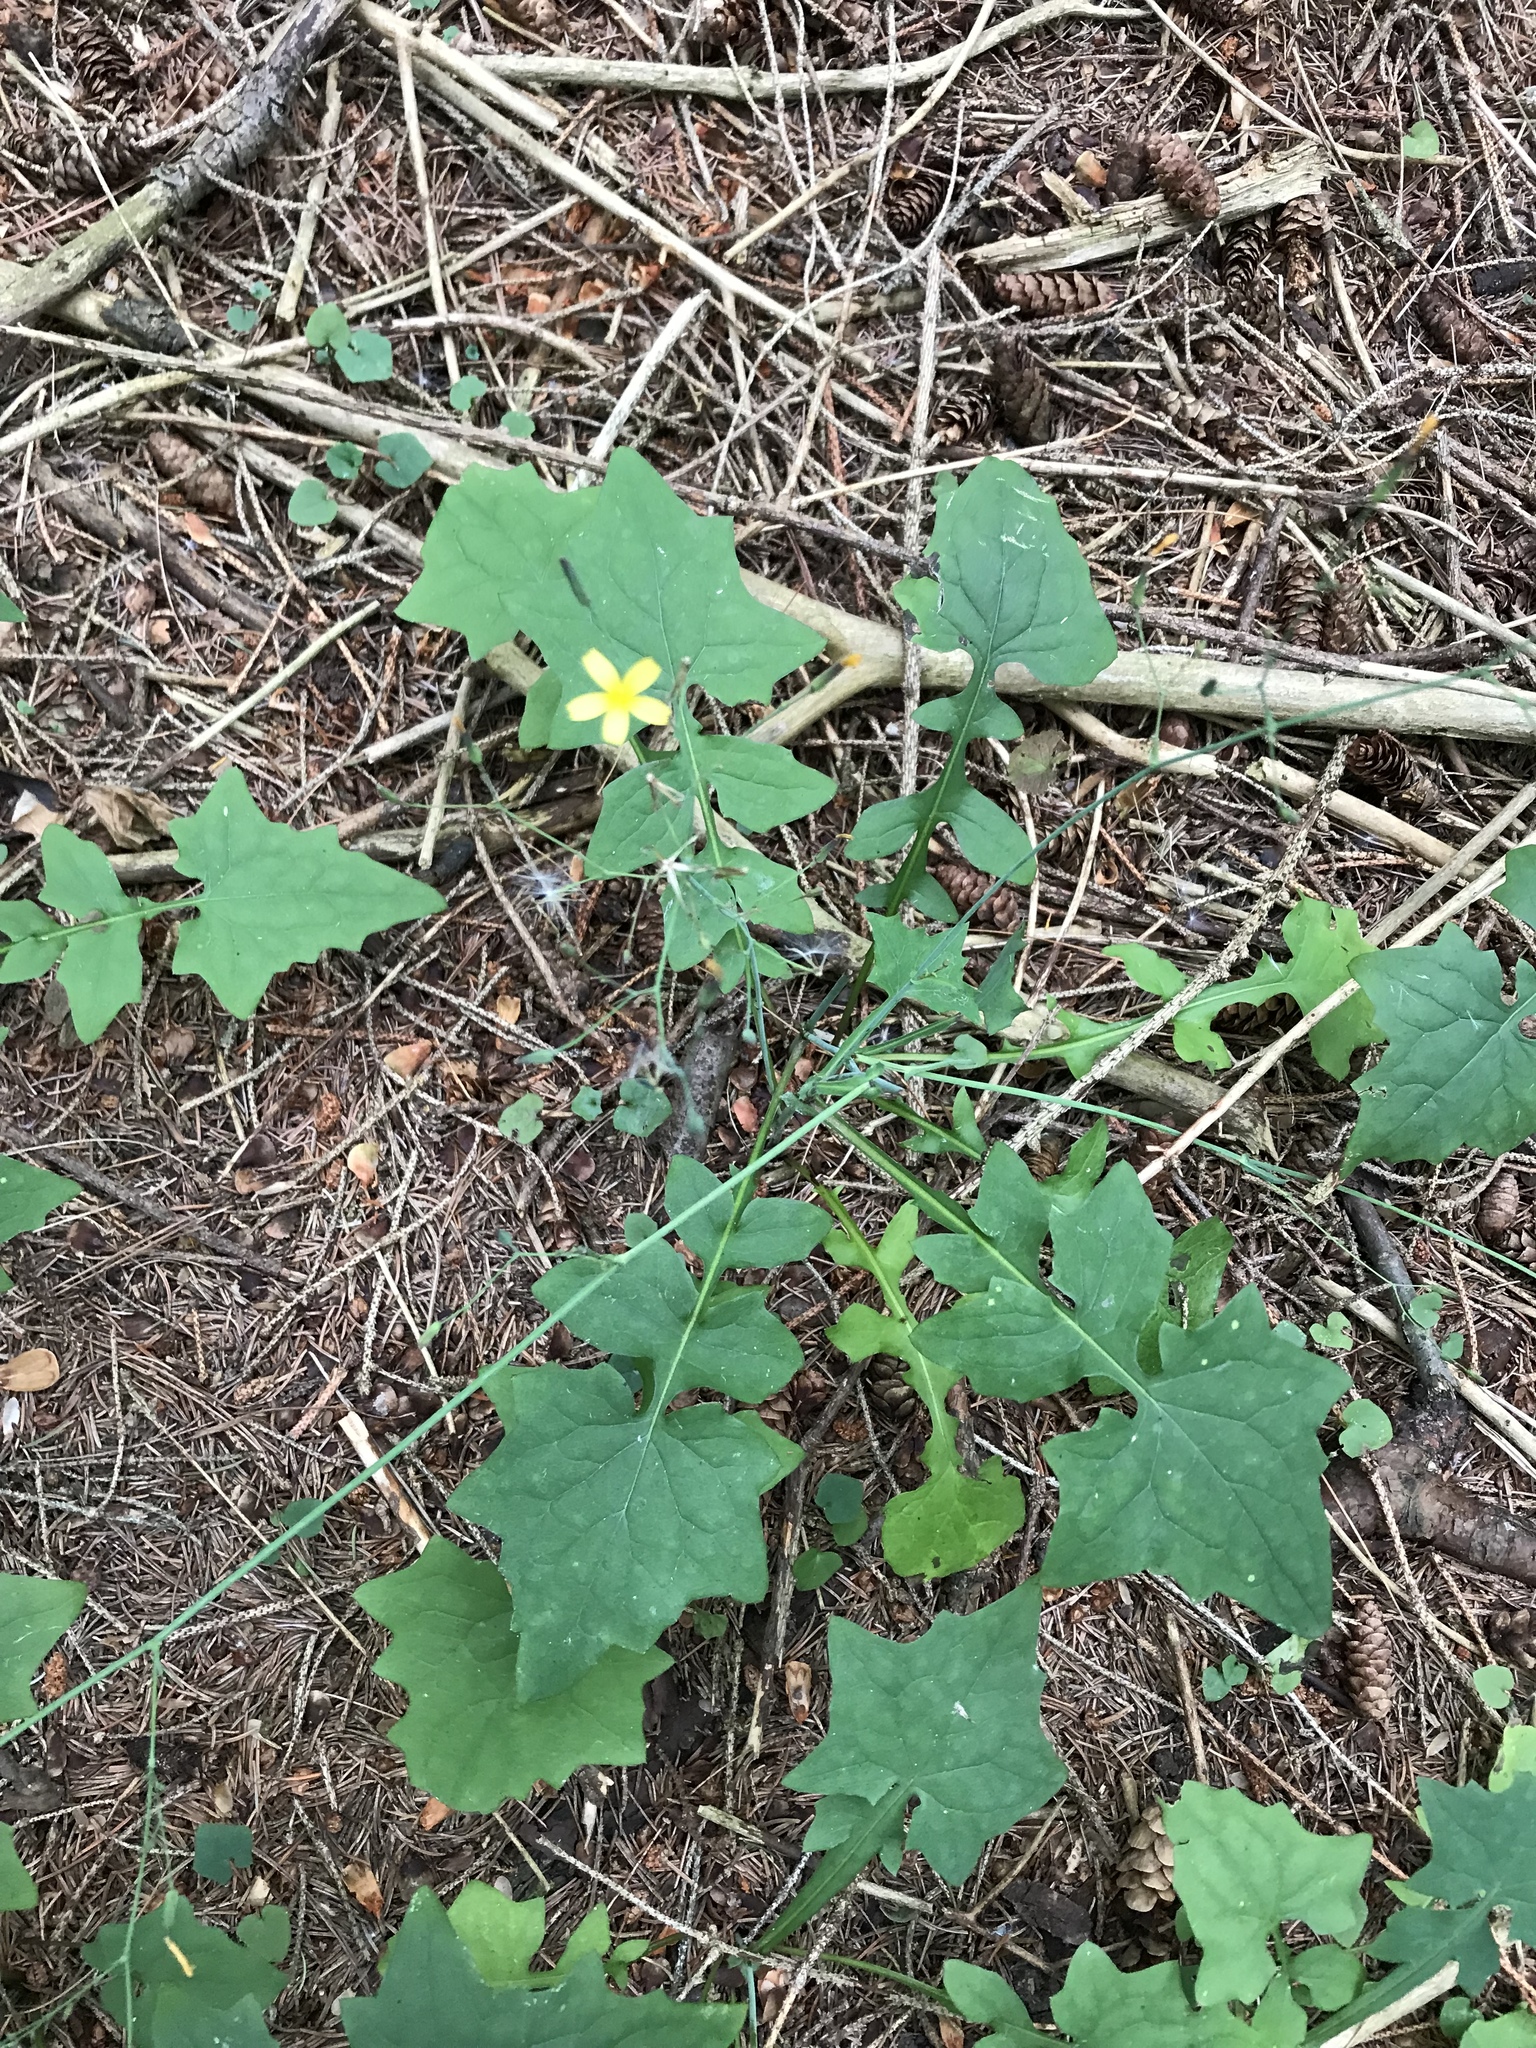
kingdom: Plantae
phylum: Tracheophyta
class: Magnoliopsida
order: Asterales
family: Asteraceae
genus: Mycelis
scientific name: Mycelis muralis
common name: Wall lettuce
